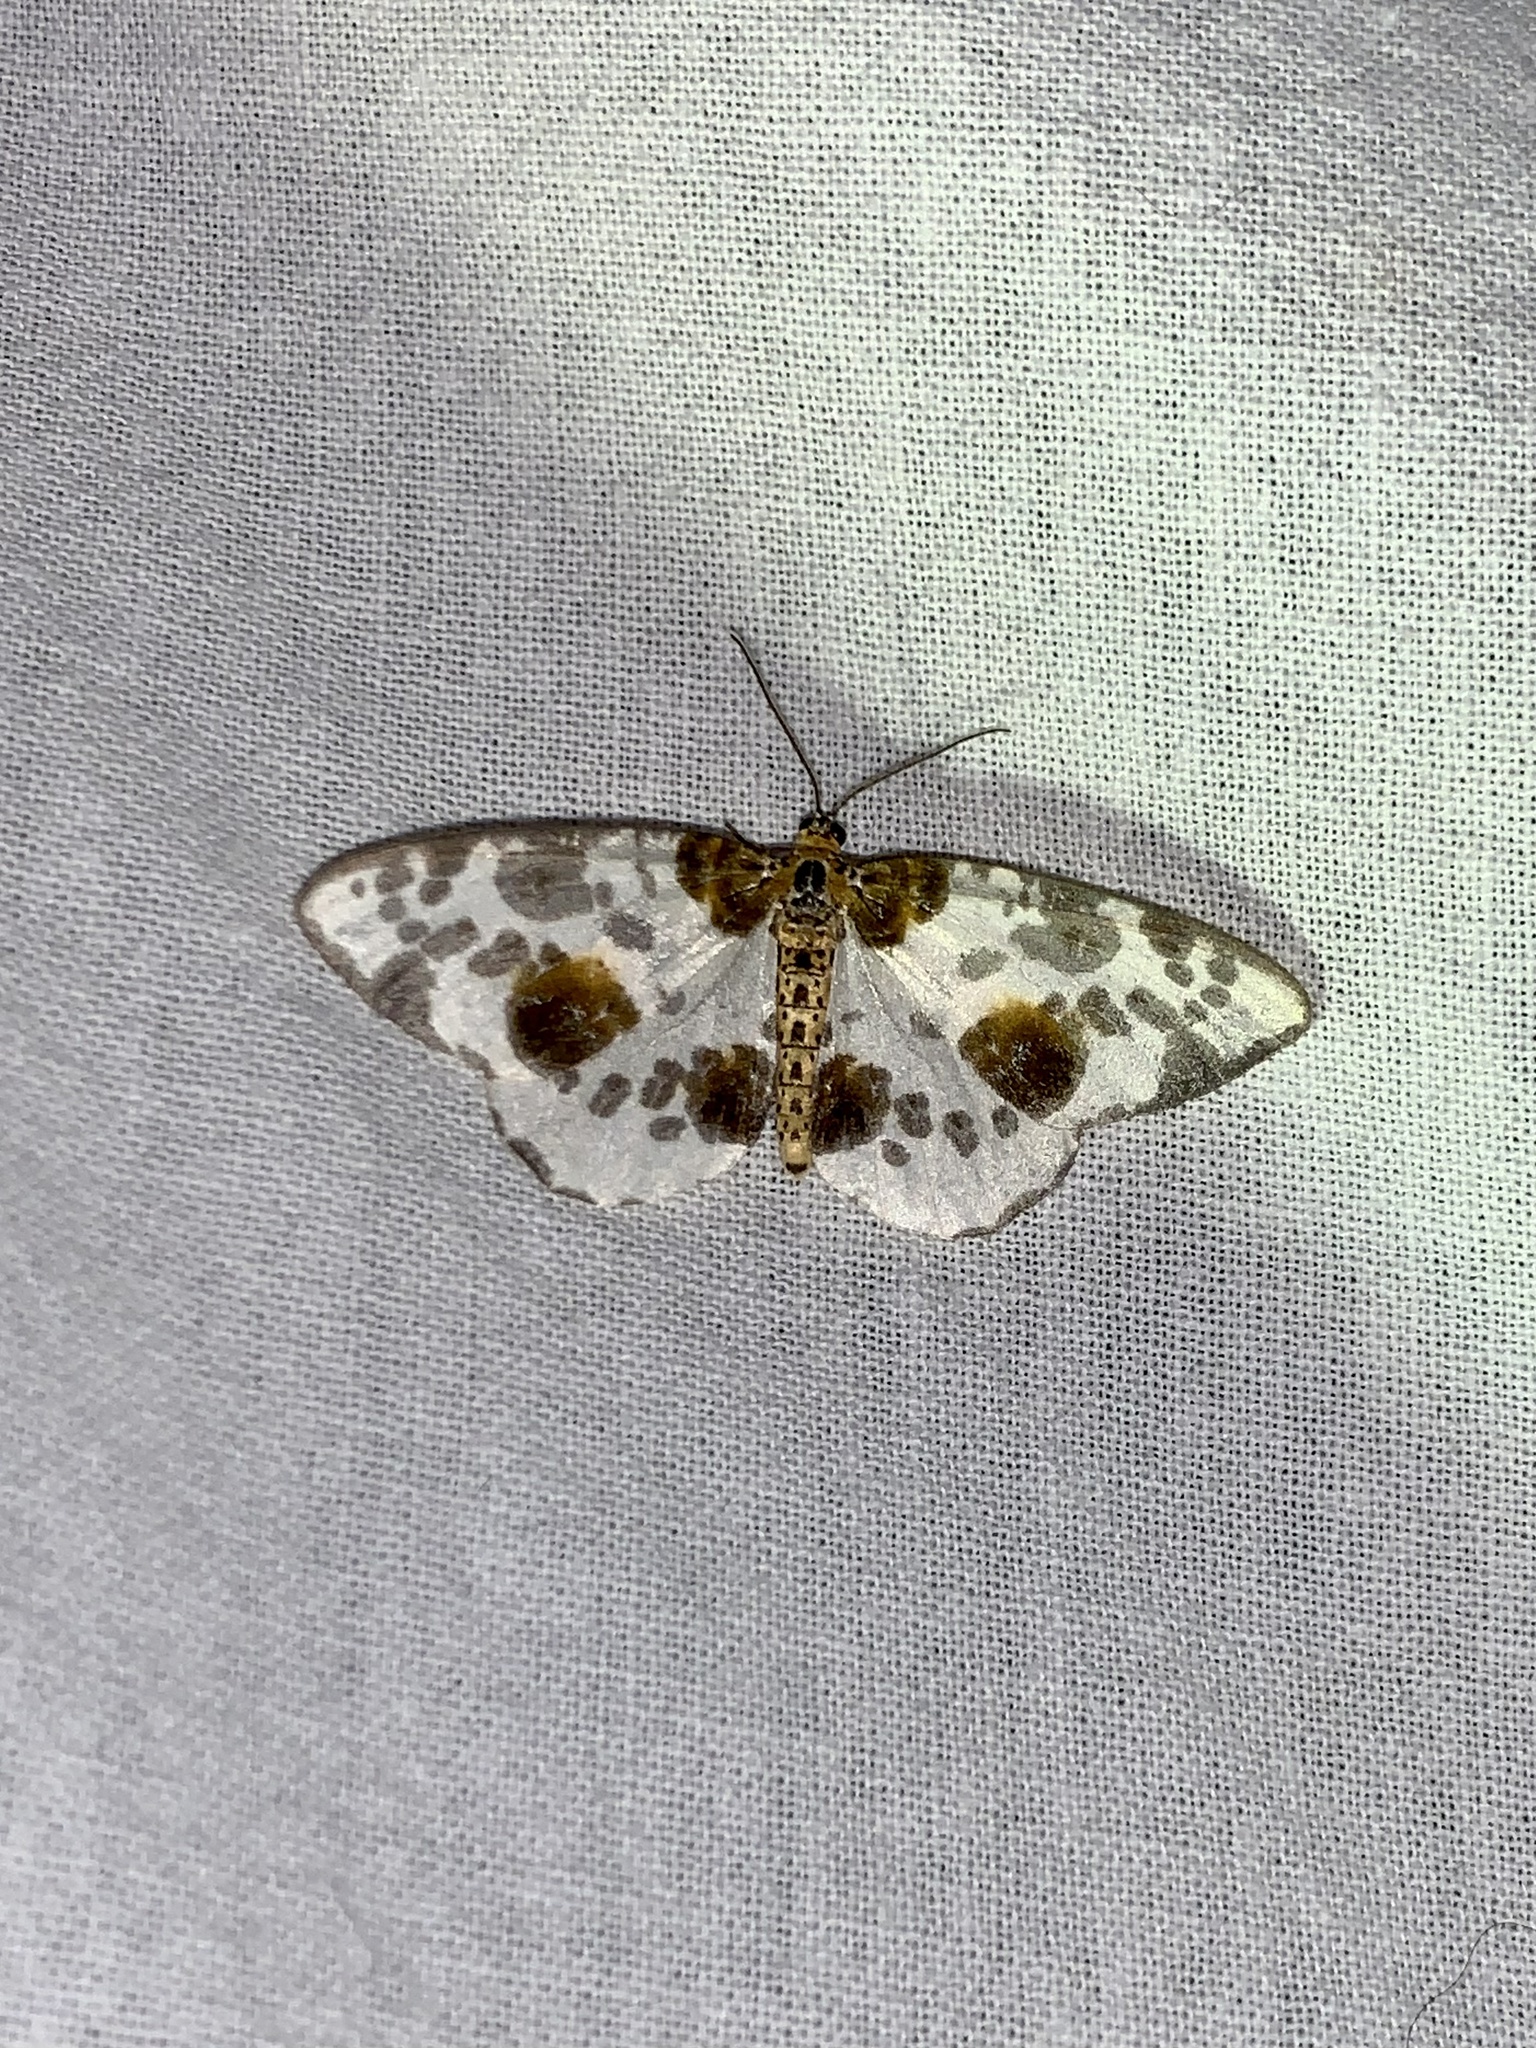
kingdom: Animalia
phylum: Arthropoda
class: Insecta
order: Lepidoptera
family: Geometridae
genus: Abraxas
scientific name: Abraxas sylvata
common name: Clouded magpie
